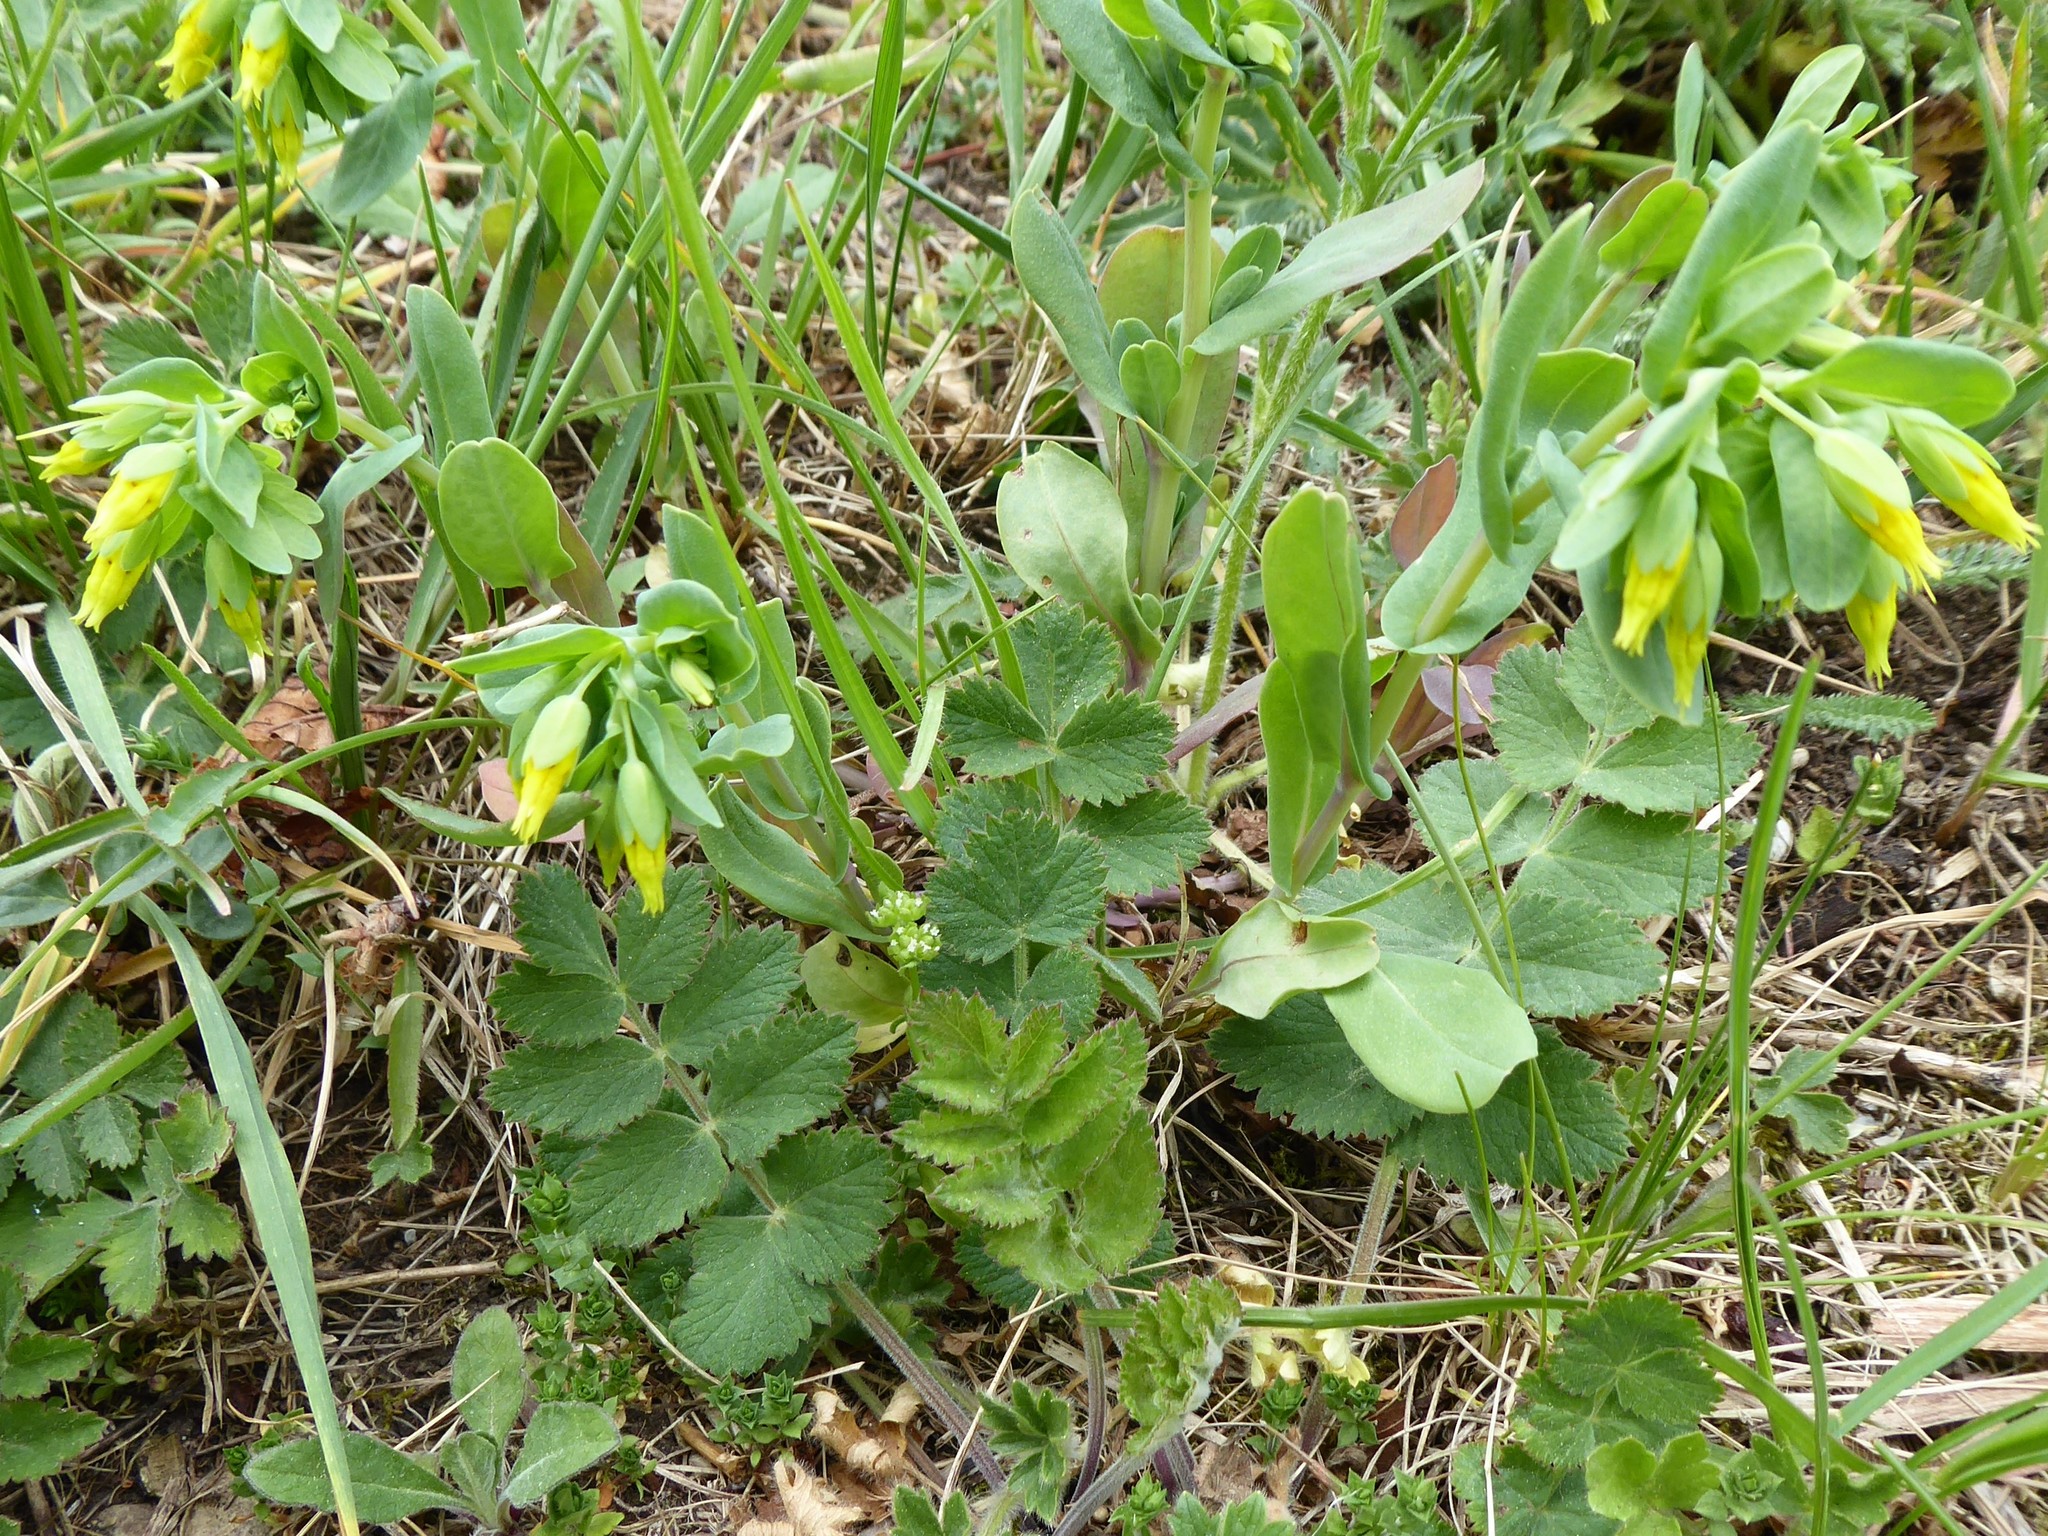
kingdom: Plantae
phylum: Tracheophyta
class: Magnoliopsida
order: Boraginales
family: Boraginaceae
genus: Cerinthe
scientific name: Cerinthe minor
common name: Lesser honeywort
